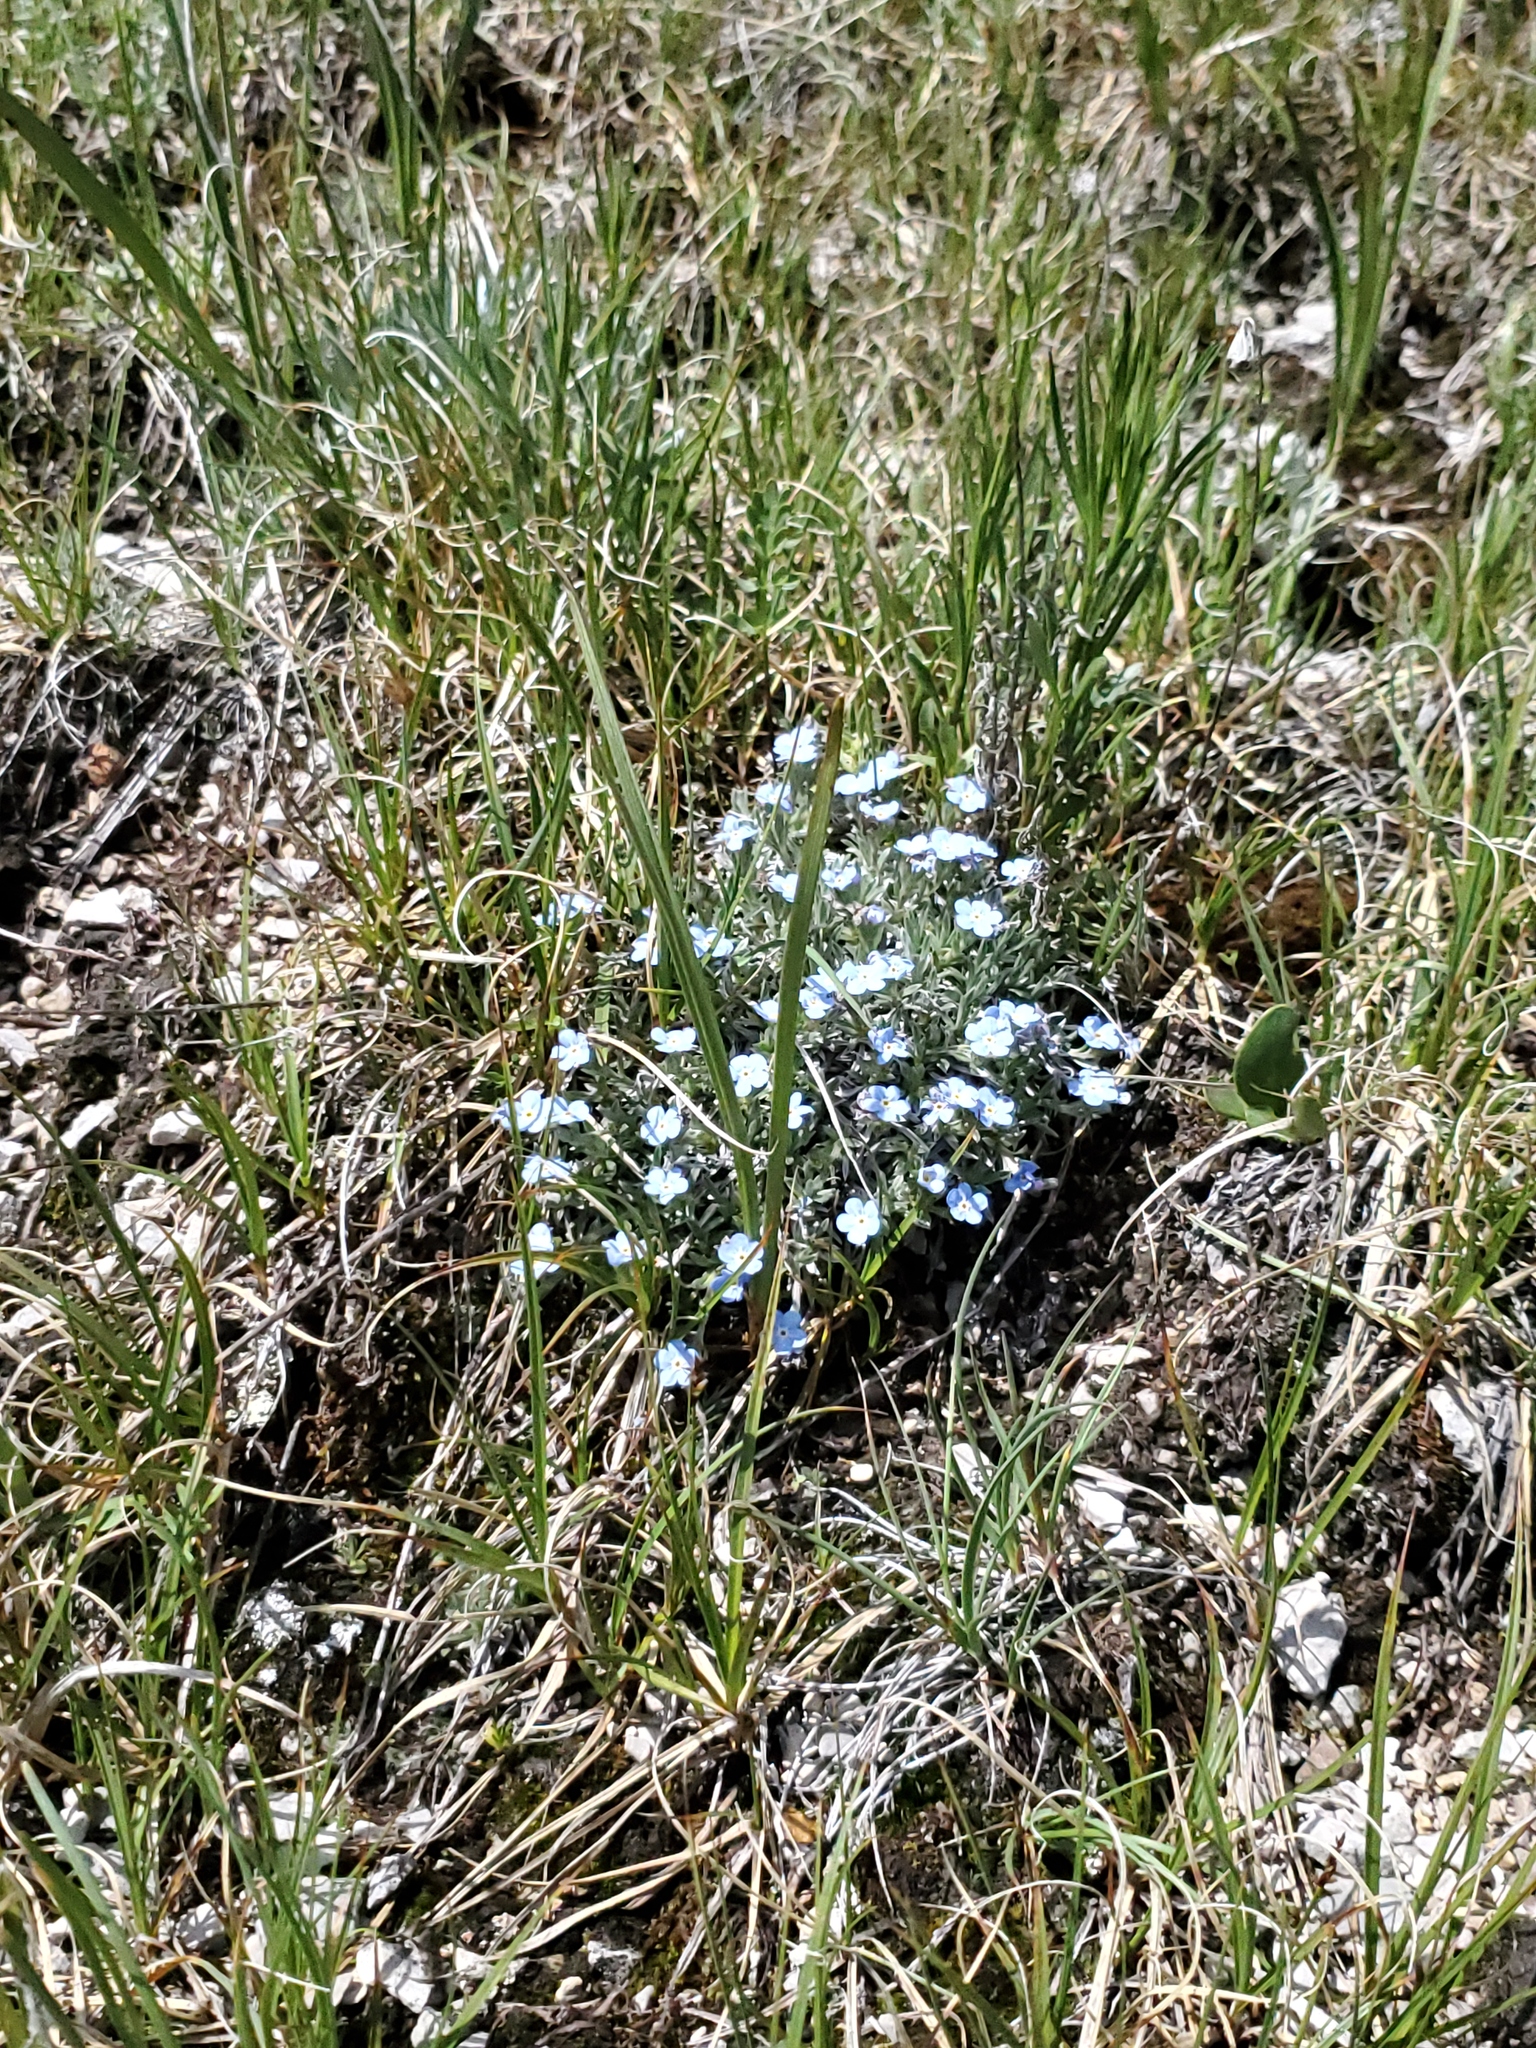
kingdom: Plantae
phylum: Tracheophyta
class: Magnoliopsida
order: Boraginales
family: Boraginaceae
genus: Eritrichium
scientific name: Eritrichium howardii
